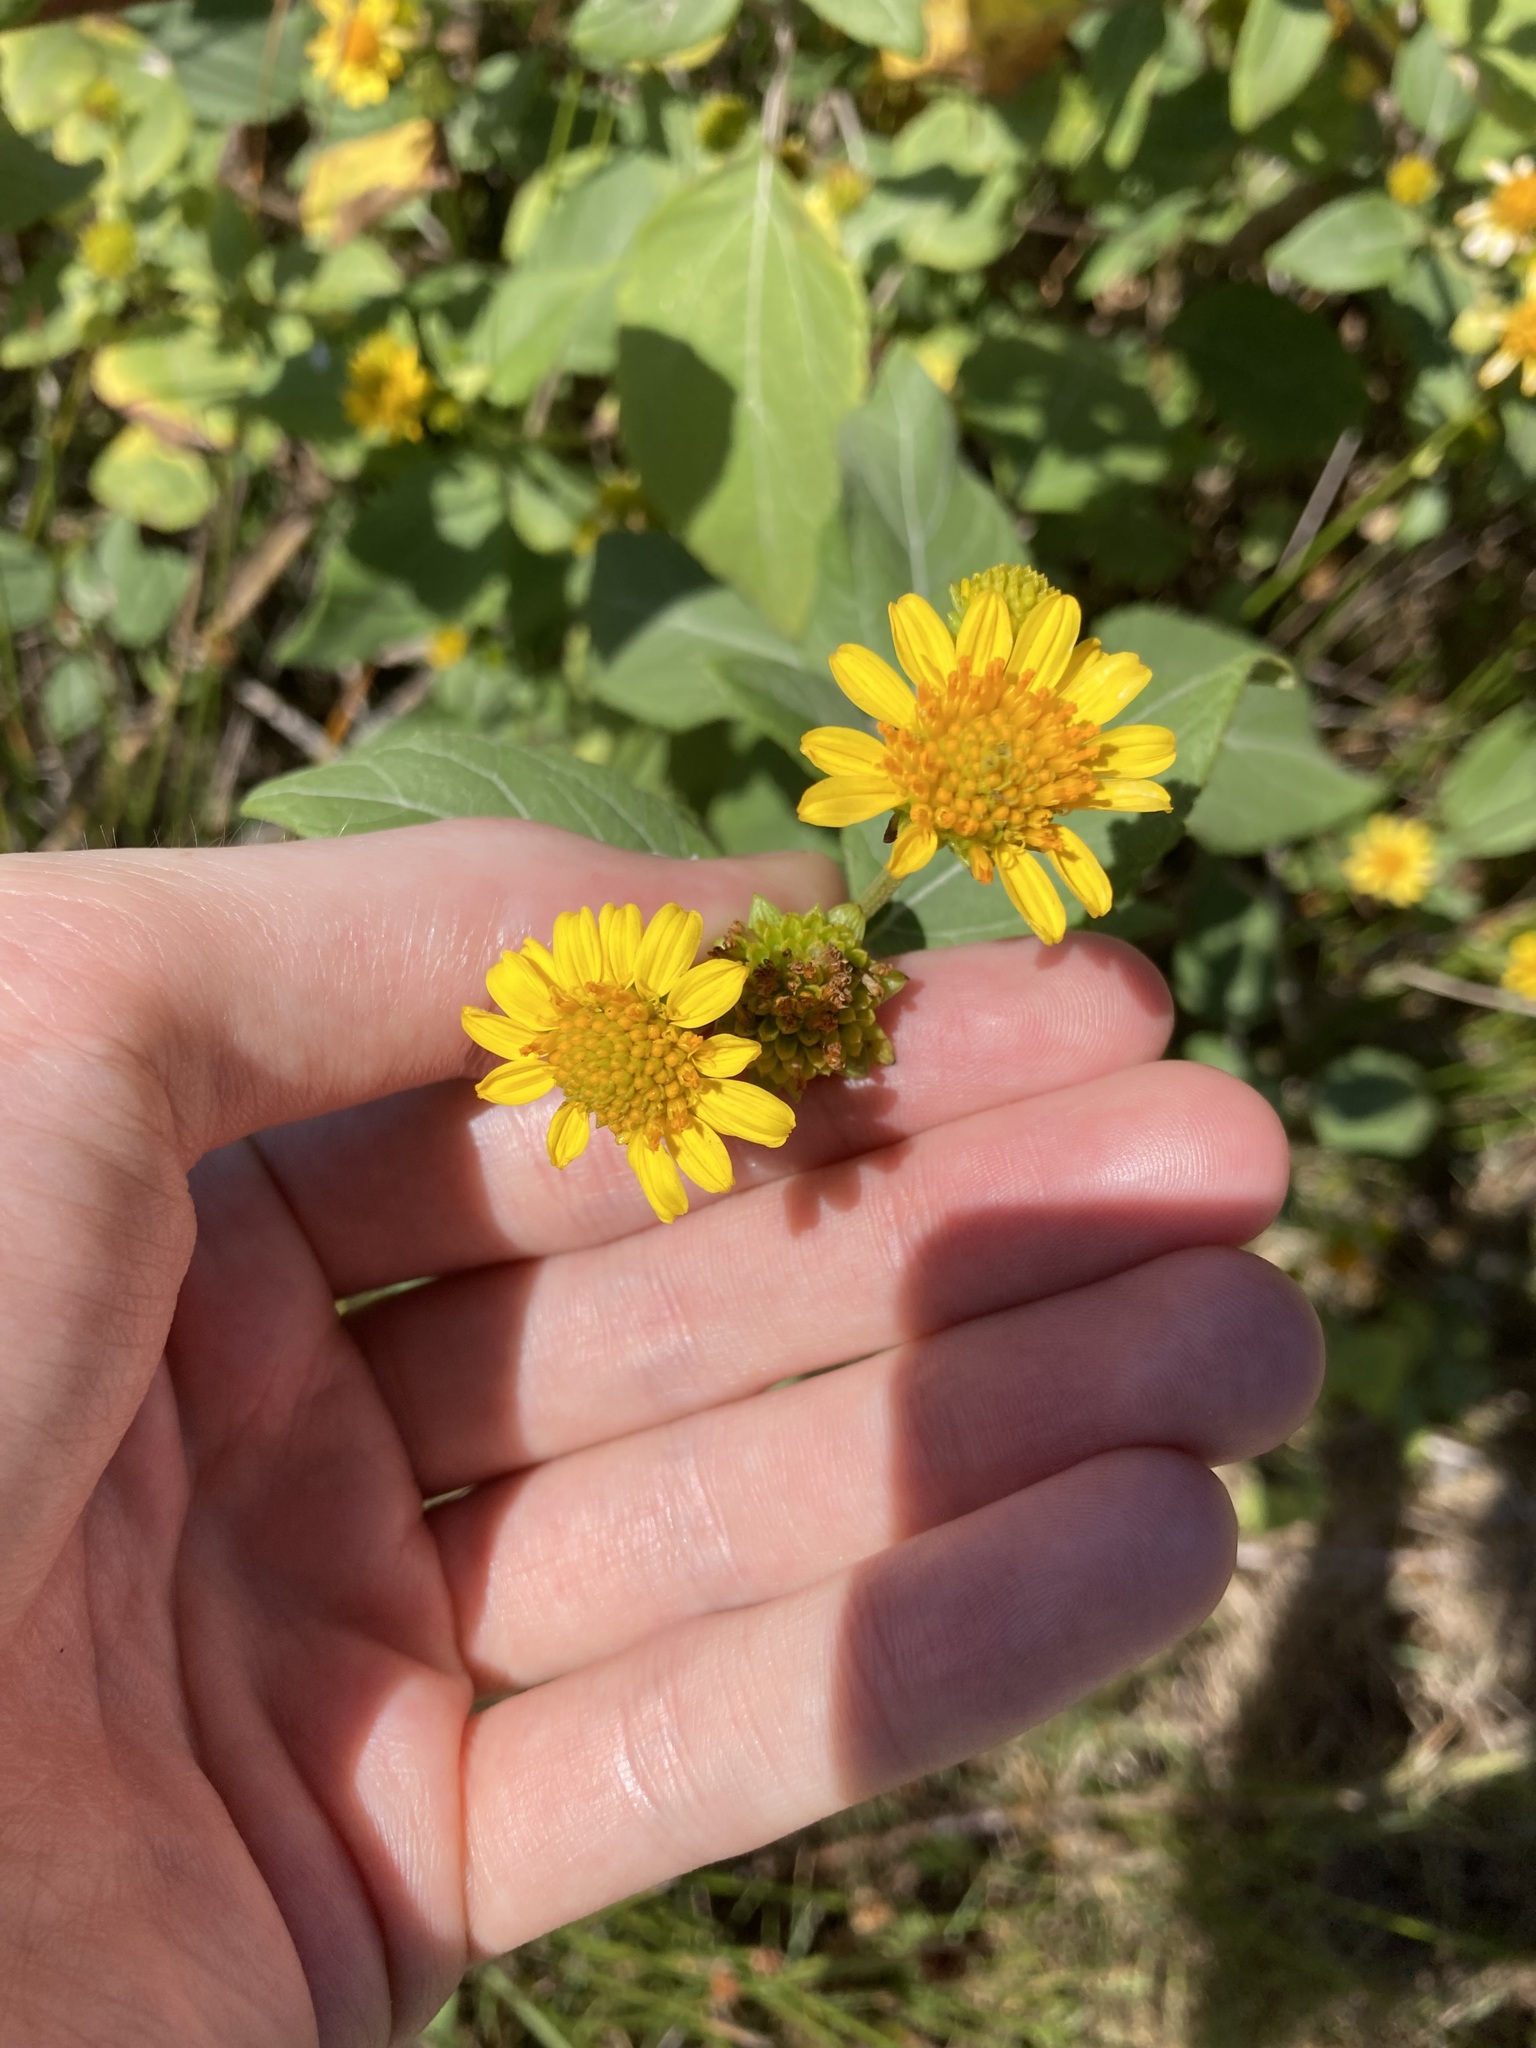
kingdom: Plantae
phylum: Tracheophyta
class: Magnoliopsida
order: Asterales
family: Asteraceae
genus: Wollastonia
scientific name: Wollastonia uniflora
